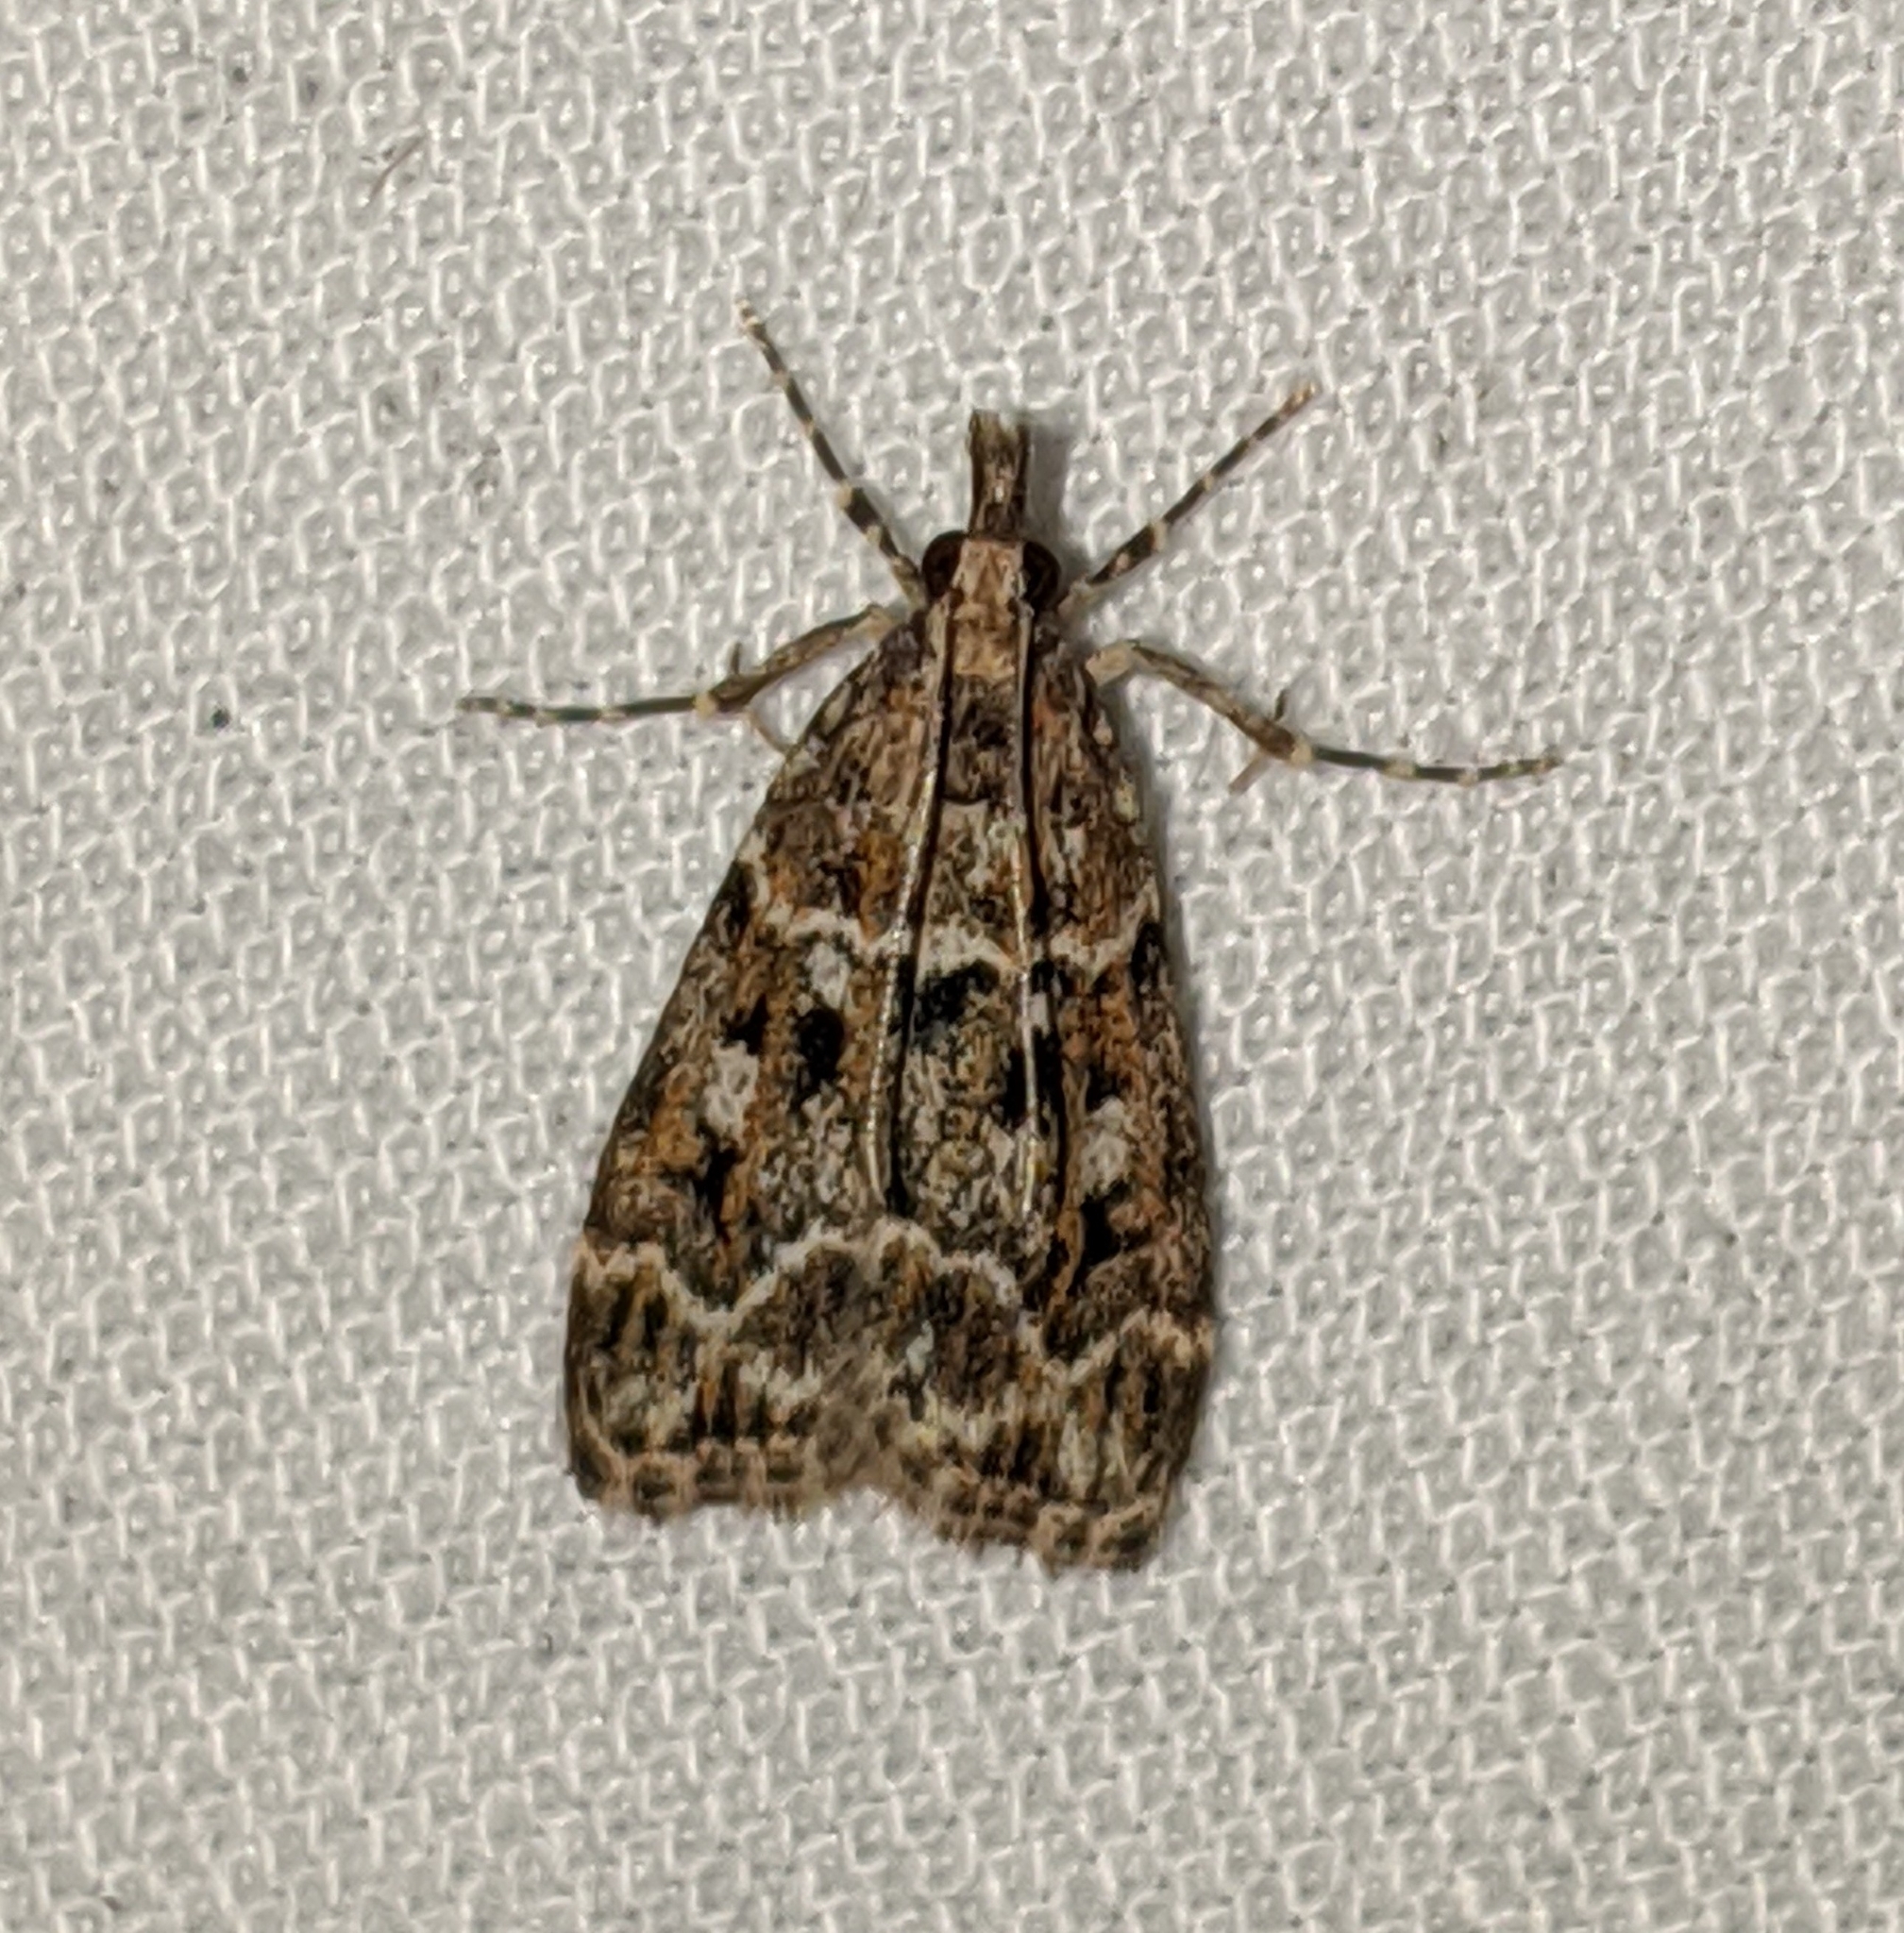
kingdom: Animalia
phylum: Arthropoda
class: Insecta
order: Lepidoptera
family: Crambidae
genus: Eudonia
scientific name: Eudonia echo
